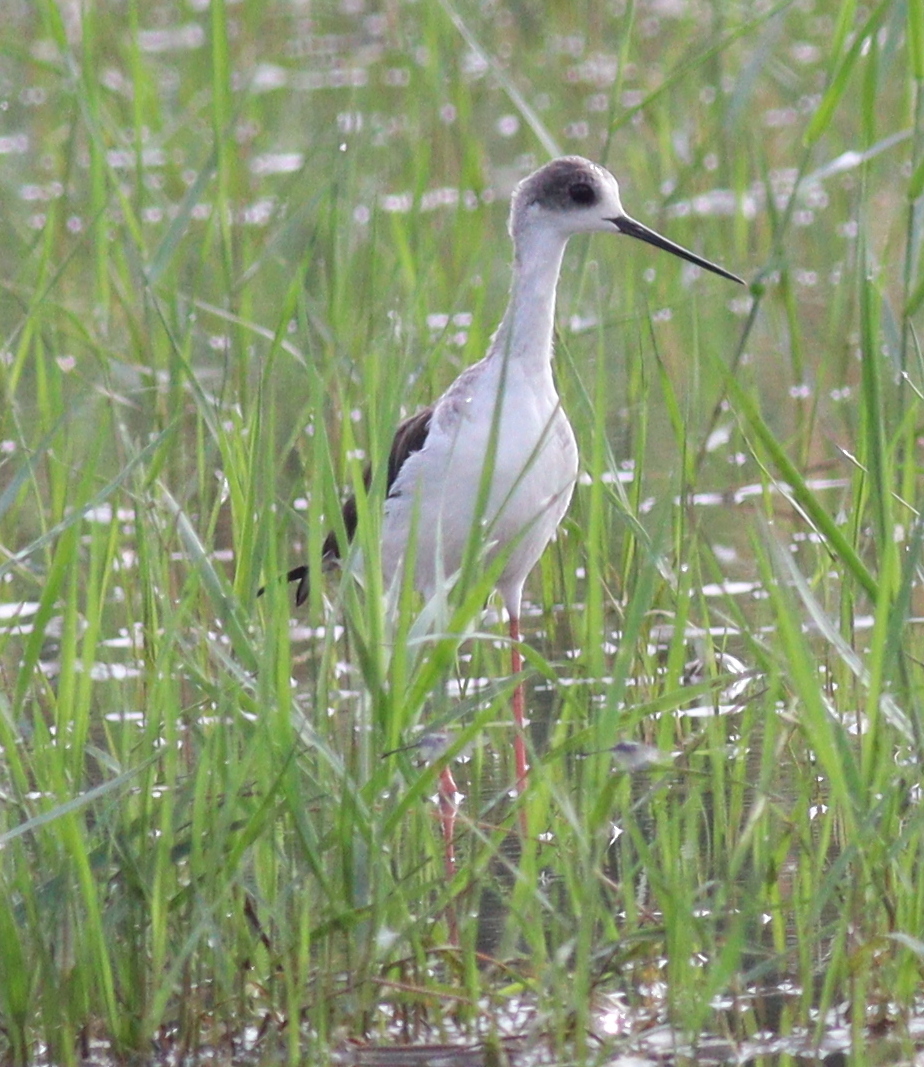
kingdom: Animalia
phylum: Chordata
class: Aves
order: Charadriiformes
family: Recurvirostridae
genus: Himantopus
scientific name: Himantopus himantopus
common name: Black-winged stilt
